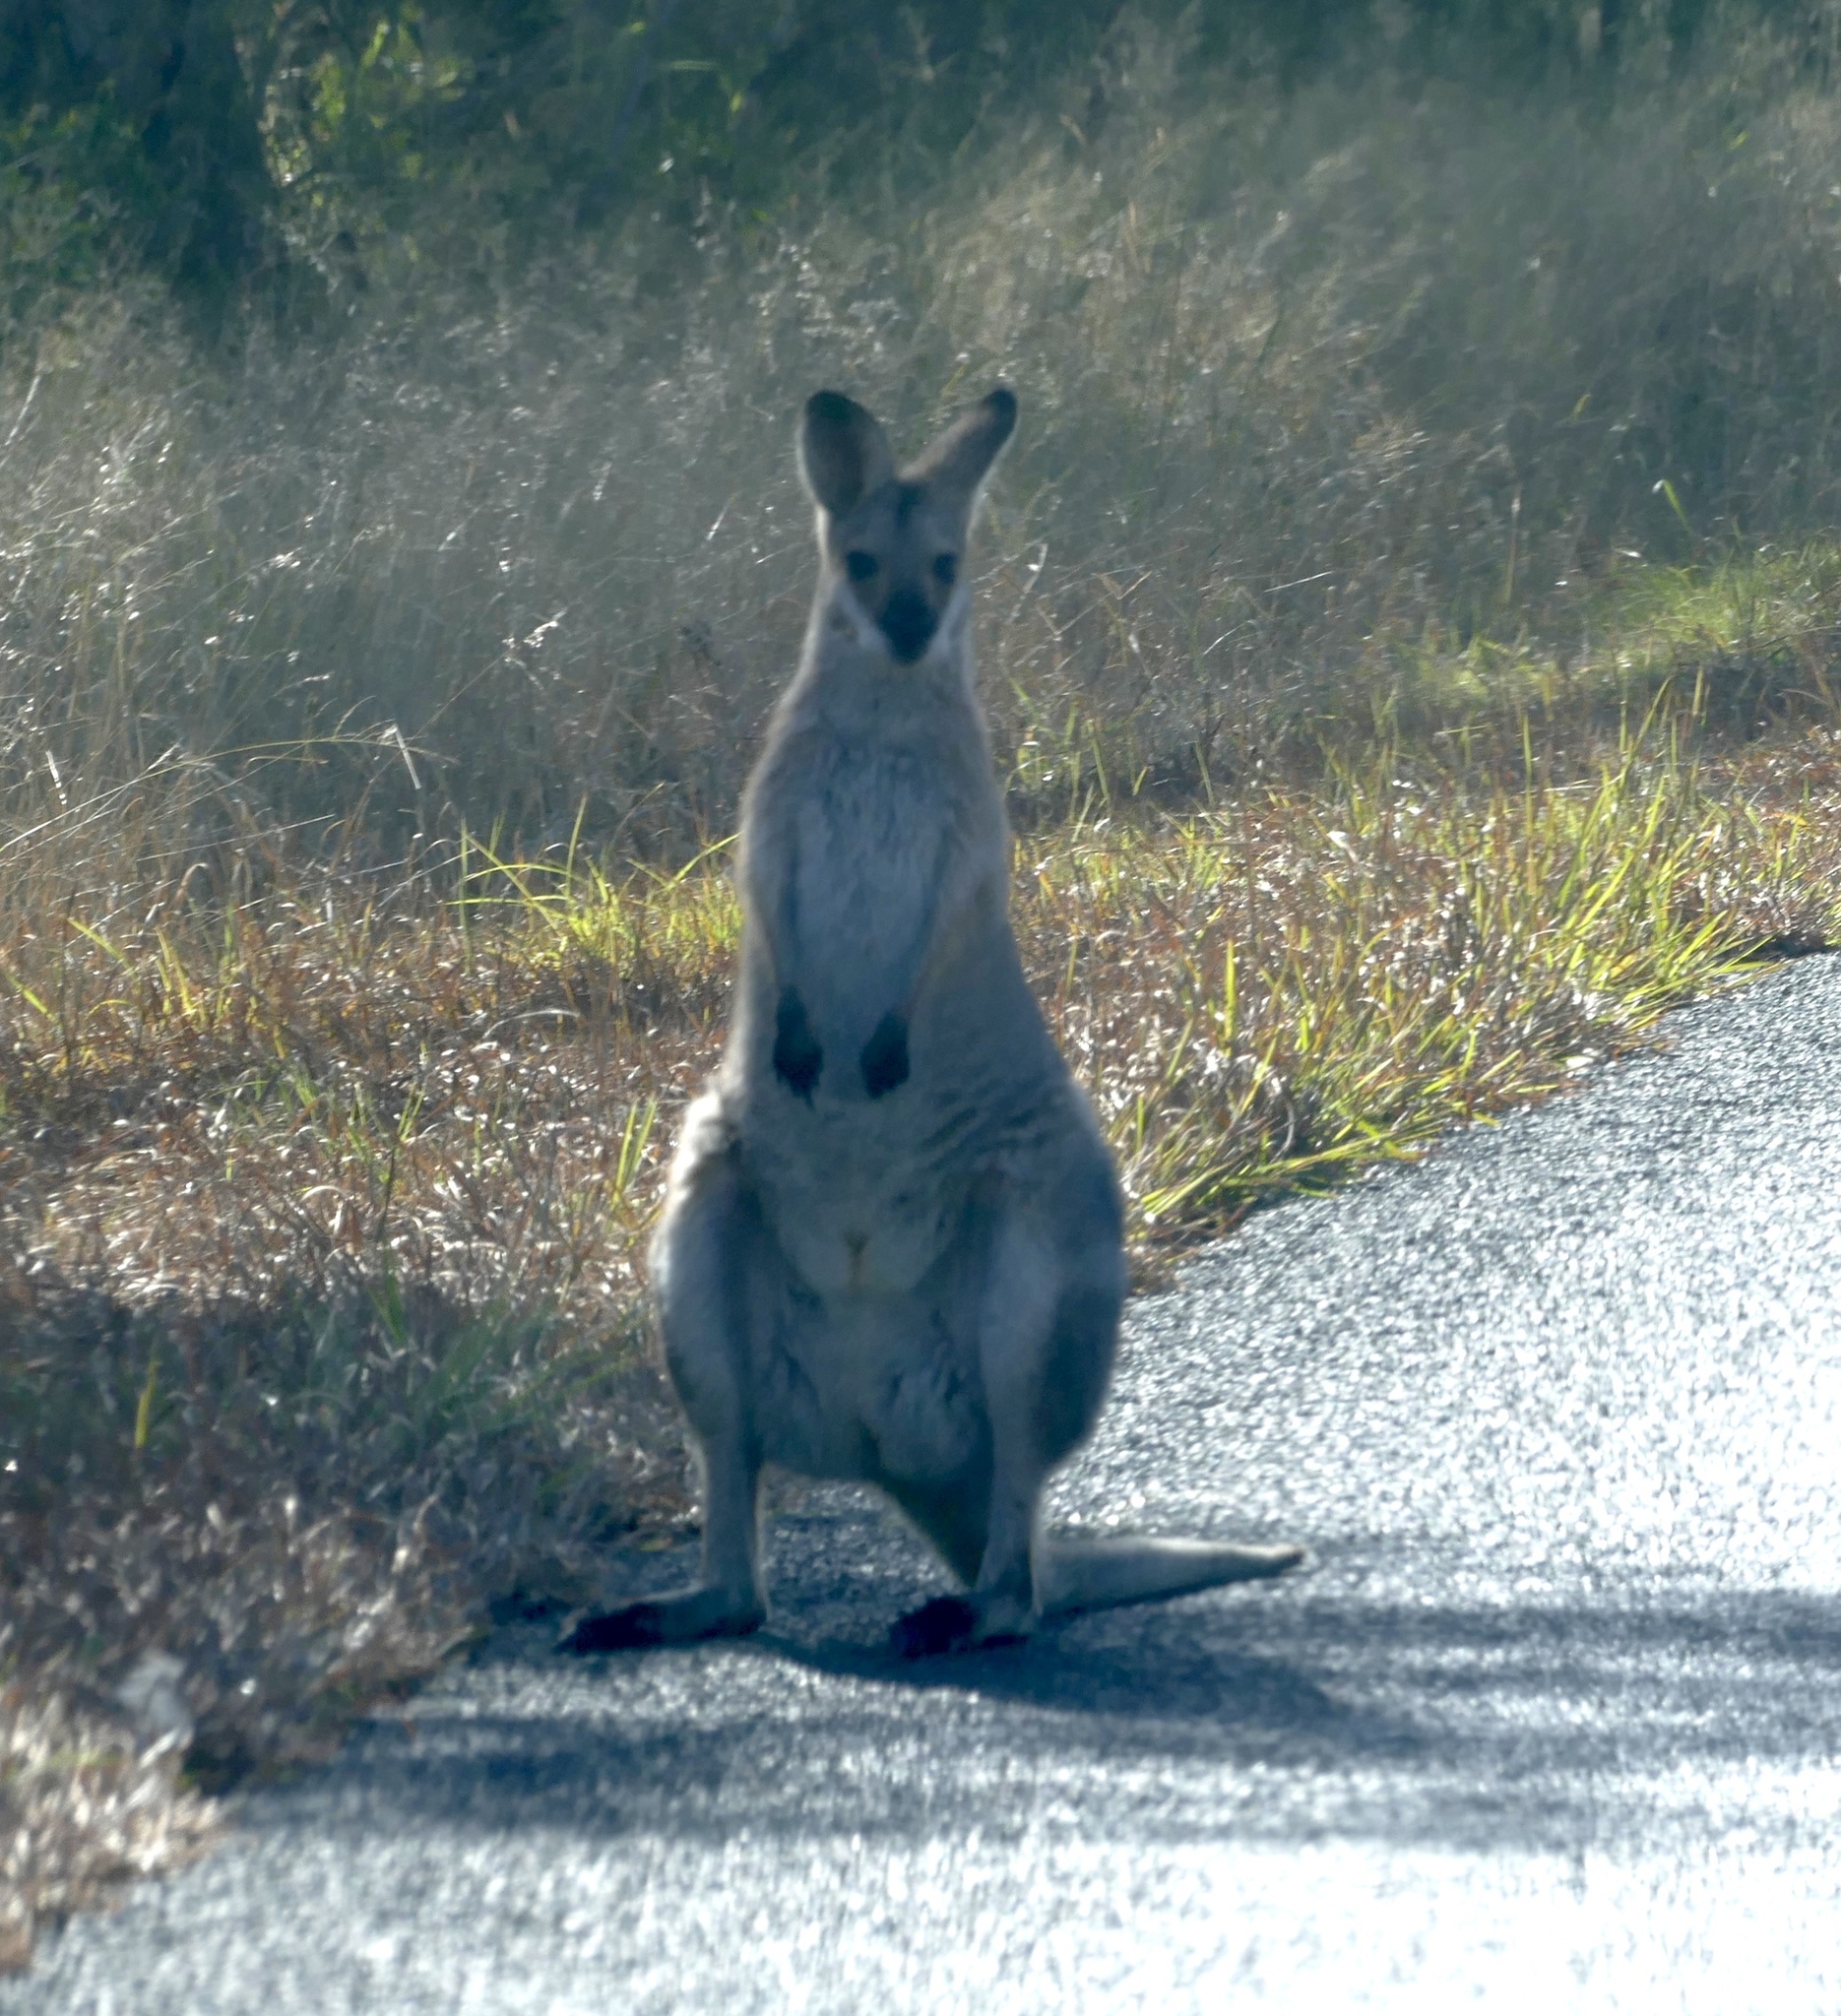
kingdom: Animalia
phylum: Chordata
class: Mammalia
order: Diprotodontia
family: Macropodidae
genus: Notamacropus
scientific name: Notamacropus rufogriseus
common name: Red-necked wallaby
